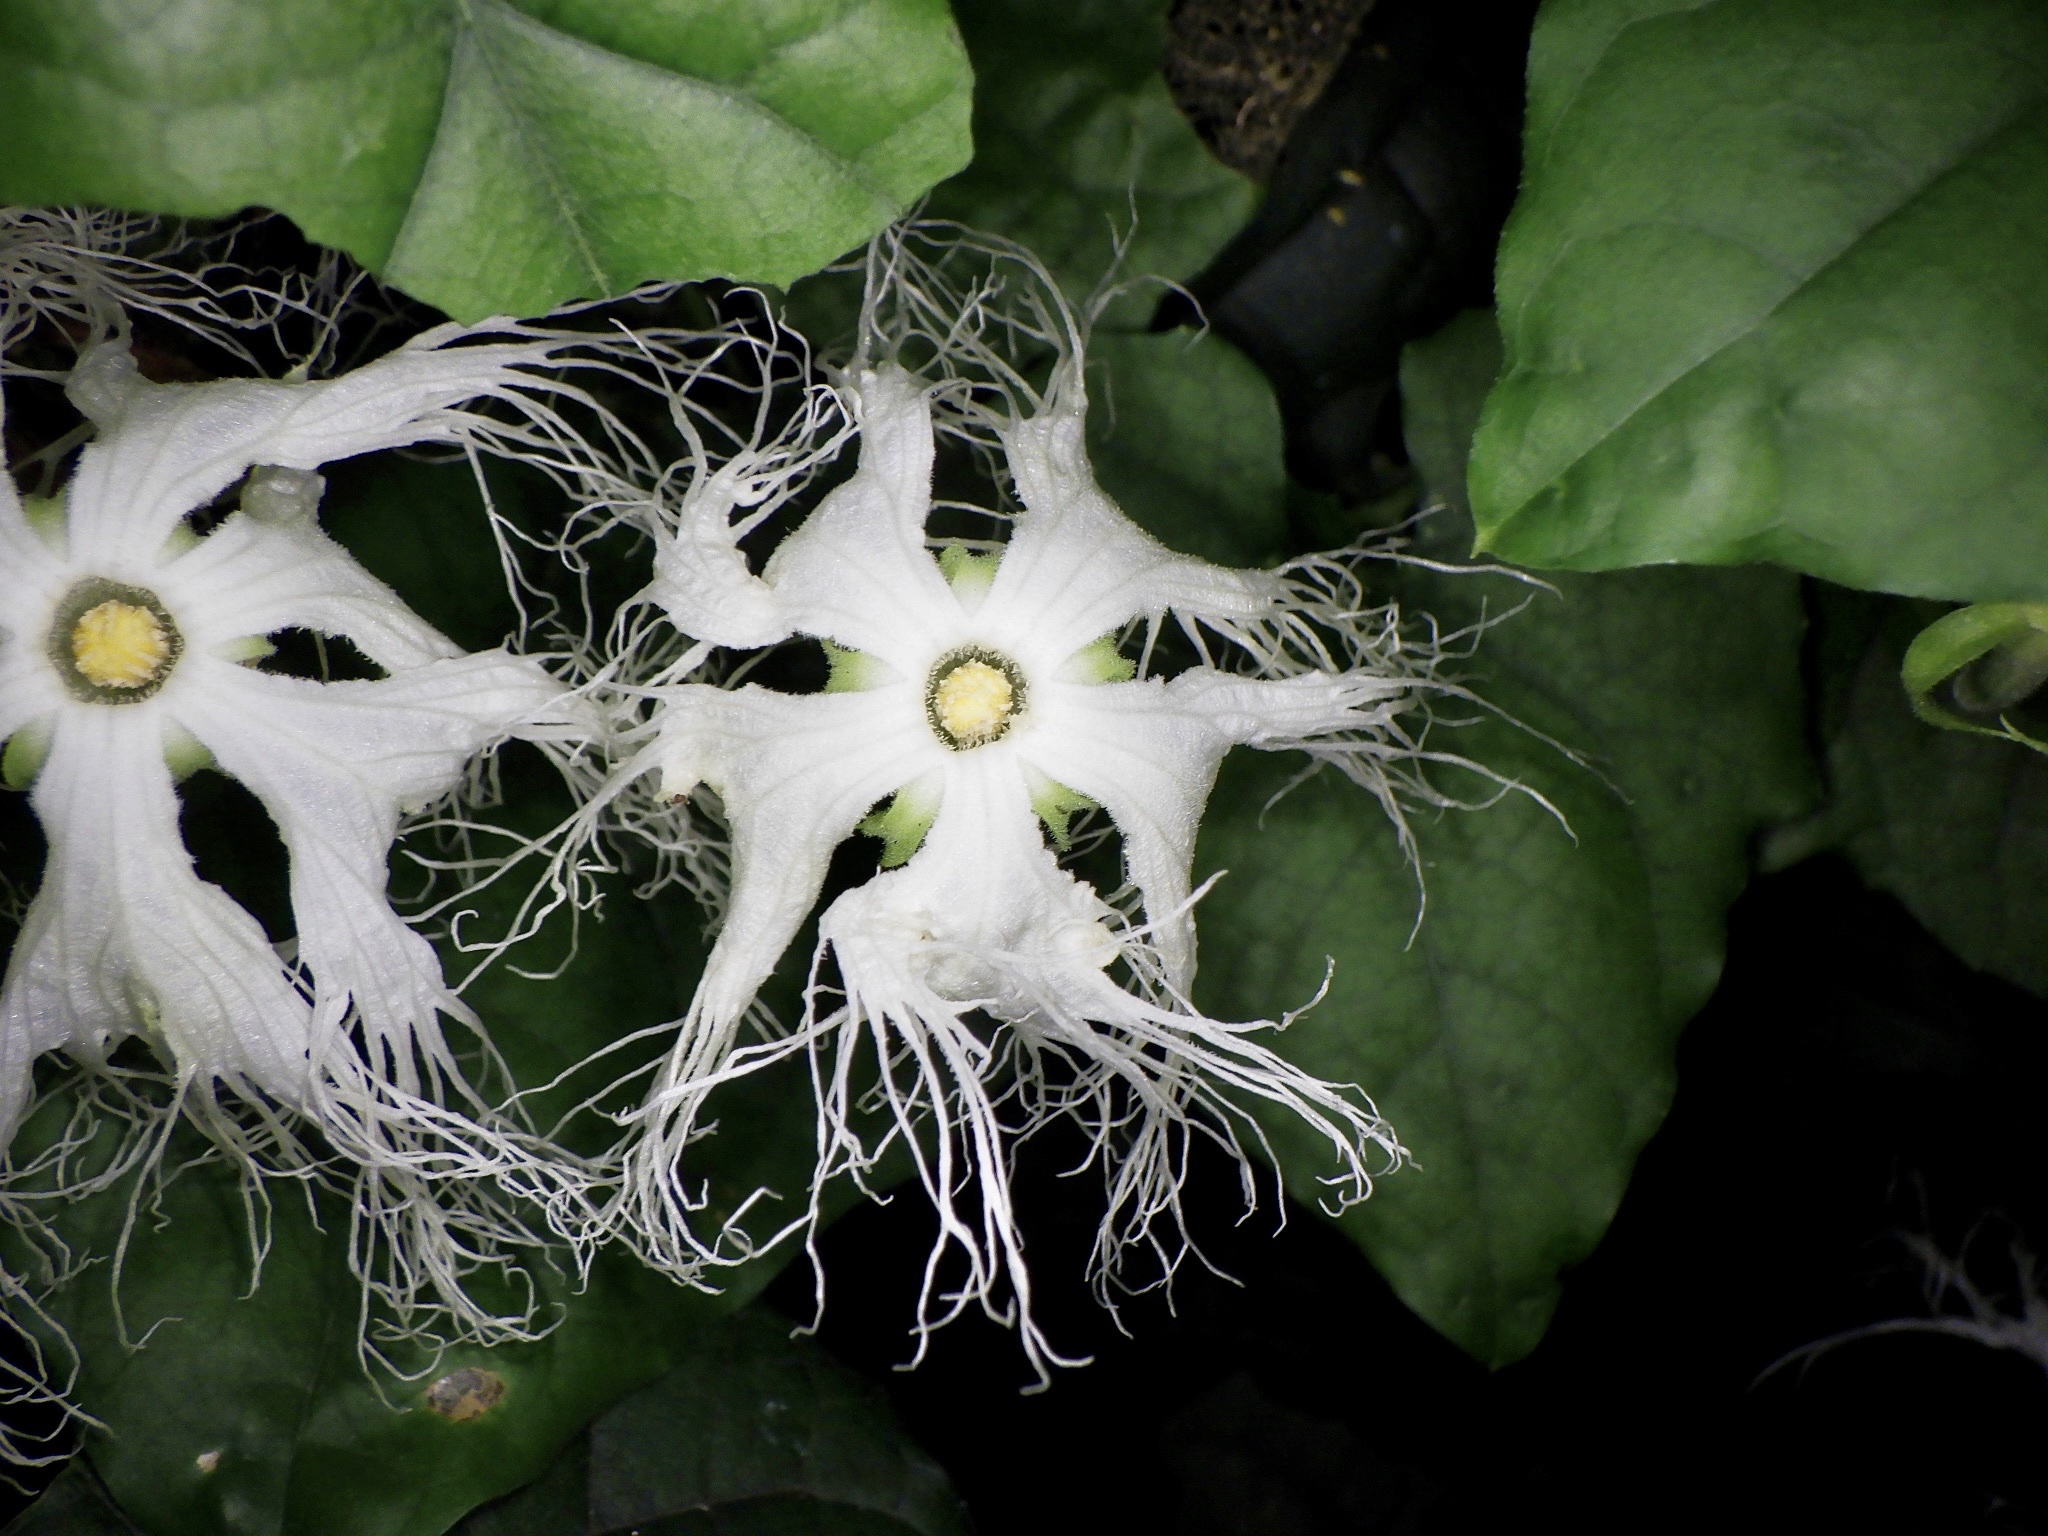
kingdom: Plantae
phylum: Tracheophyta
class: Magnoliopsida
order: Cucurbitales
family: Cucurbitaceae
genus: Trichosanthes
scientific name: Trichosanthes kirilowii
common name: Chinese-cucumber
